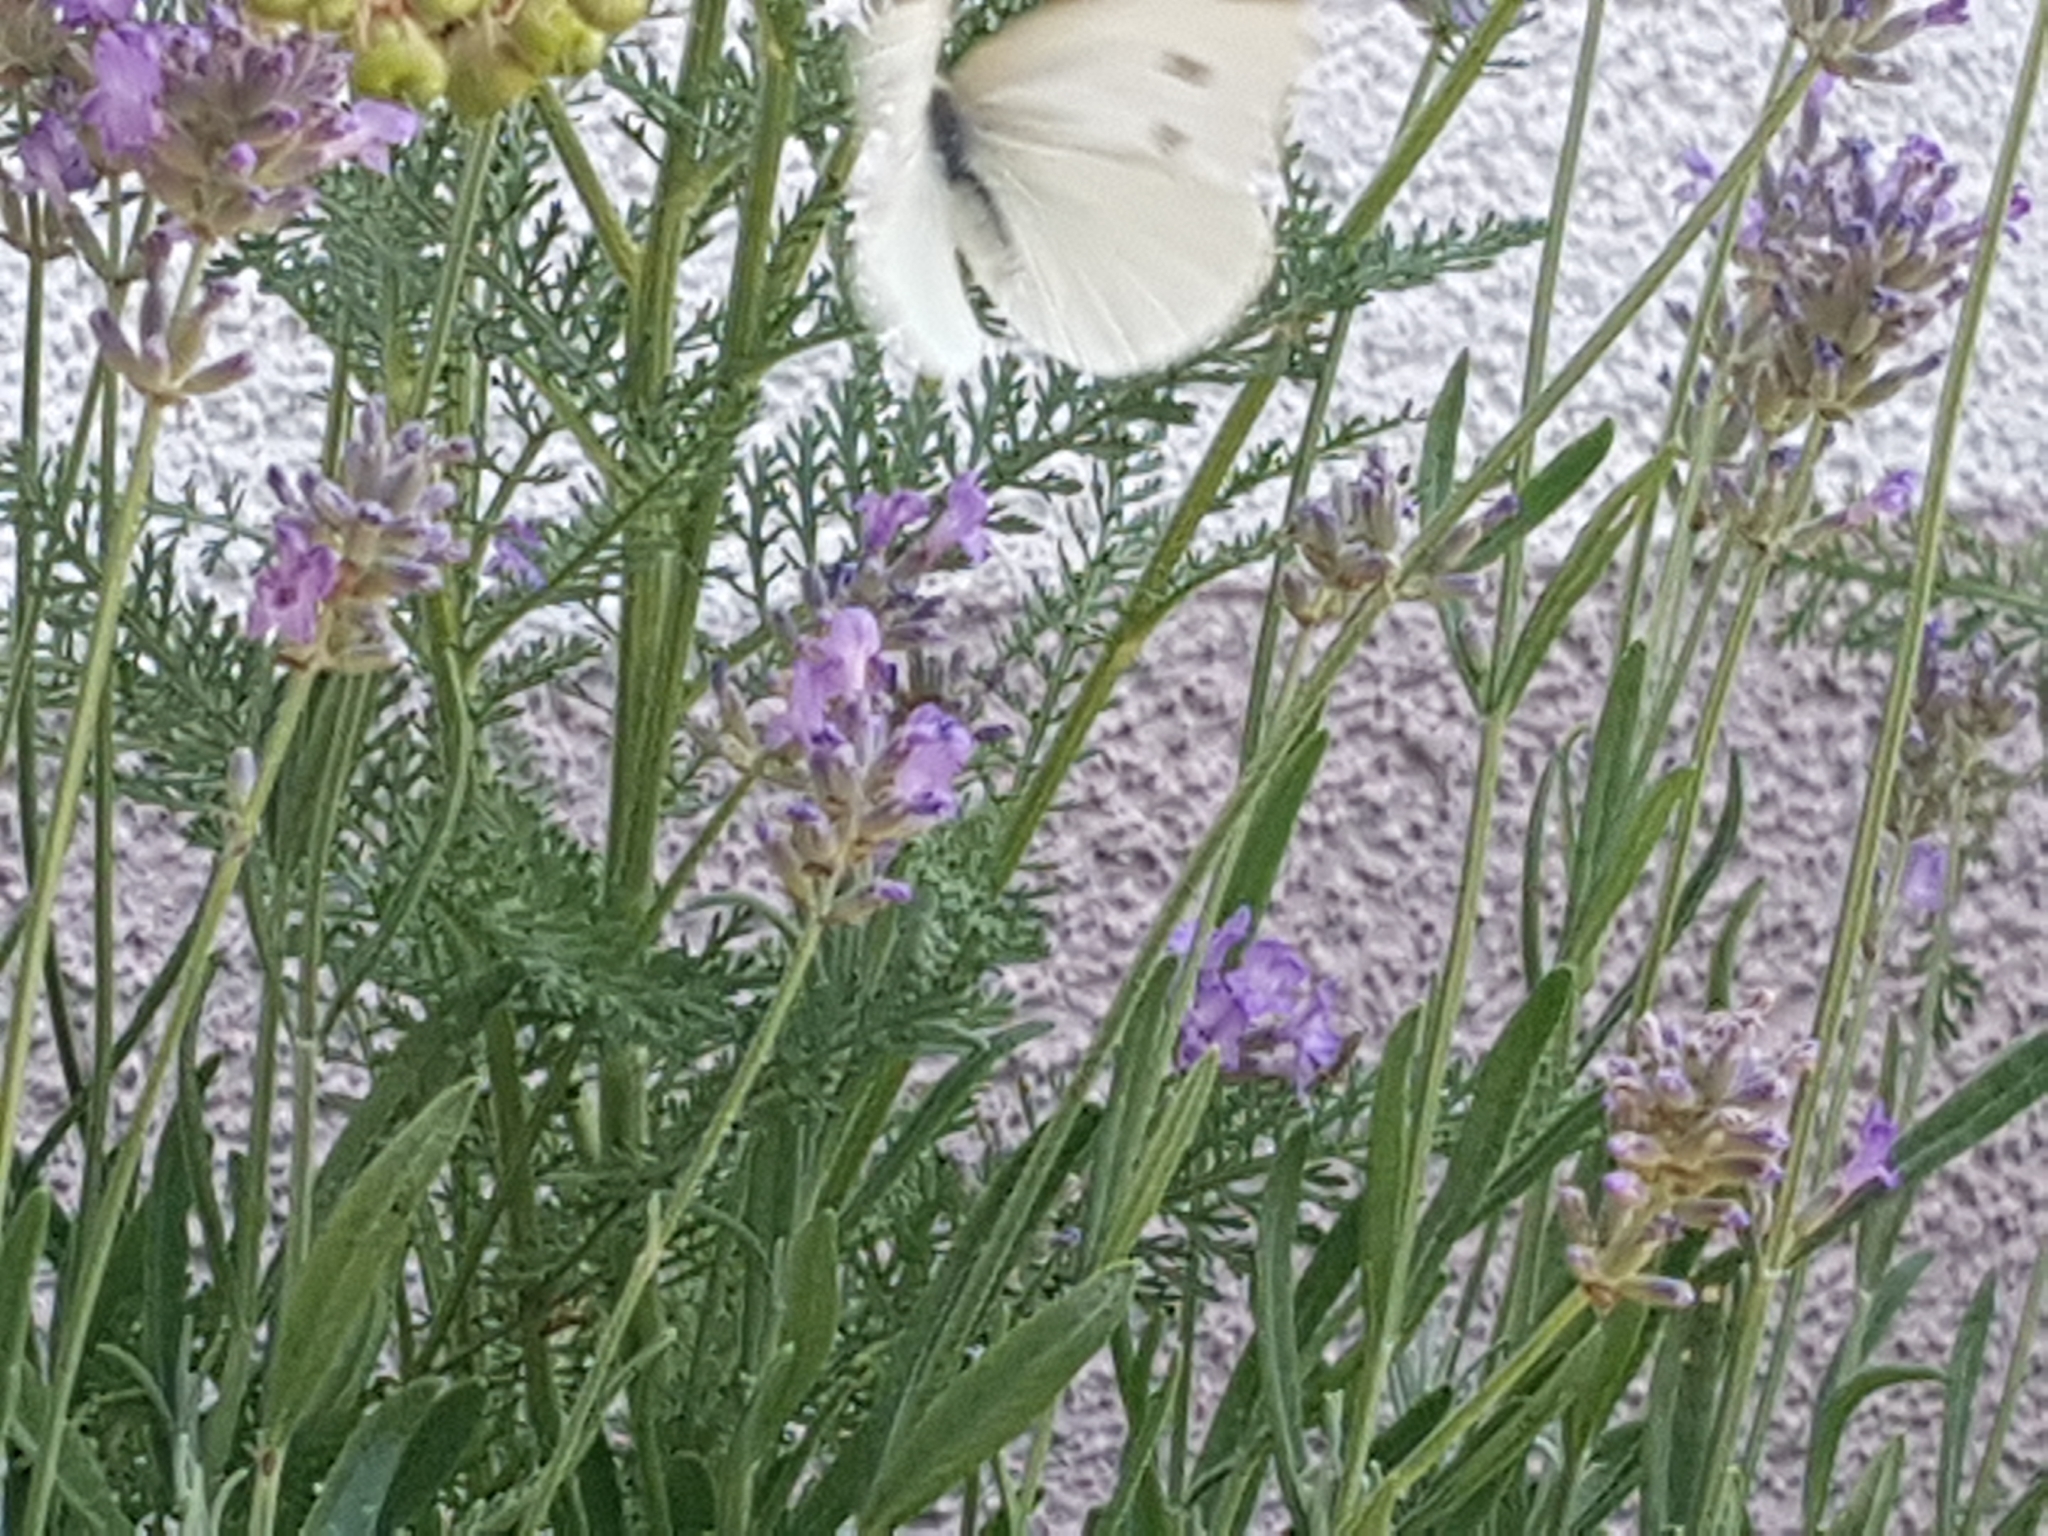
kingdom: Animalia
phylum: Arthropoda
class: Insecta
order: Lepidoptera
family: Pieridae
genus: Pieris
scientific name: Pieris rapae
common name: Small white
